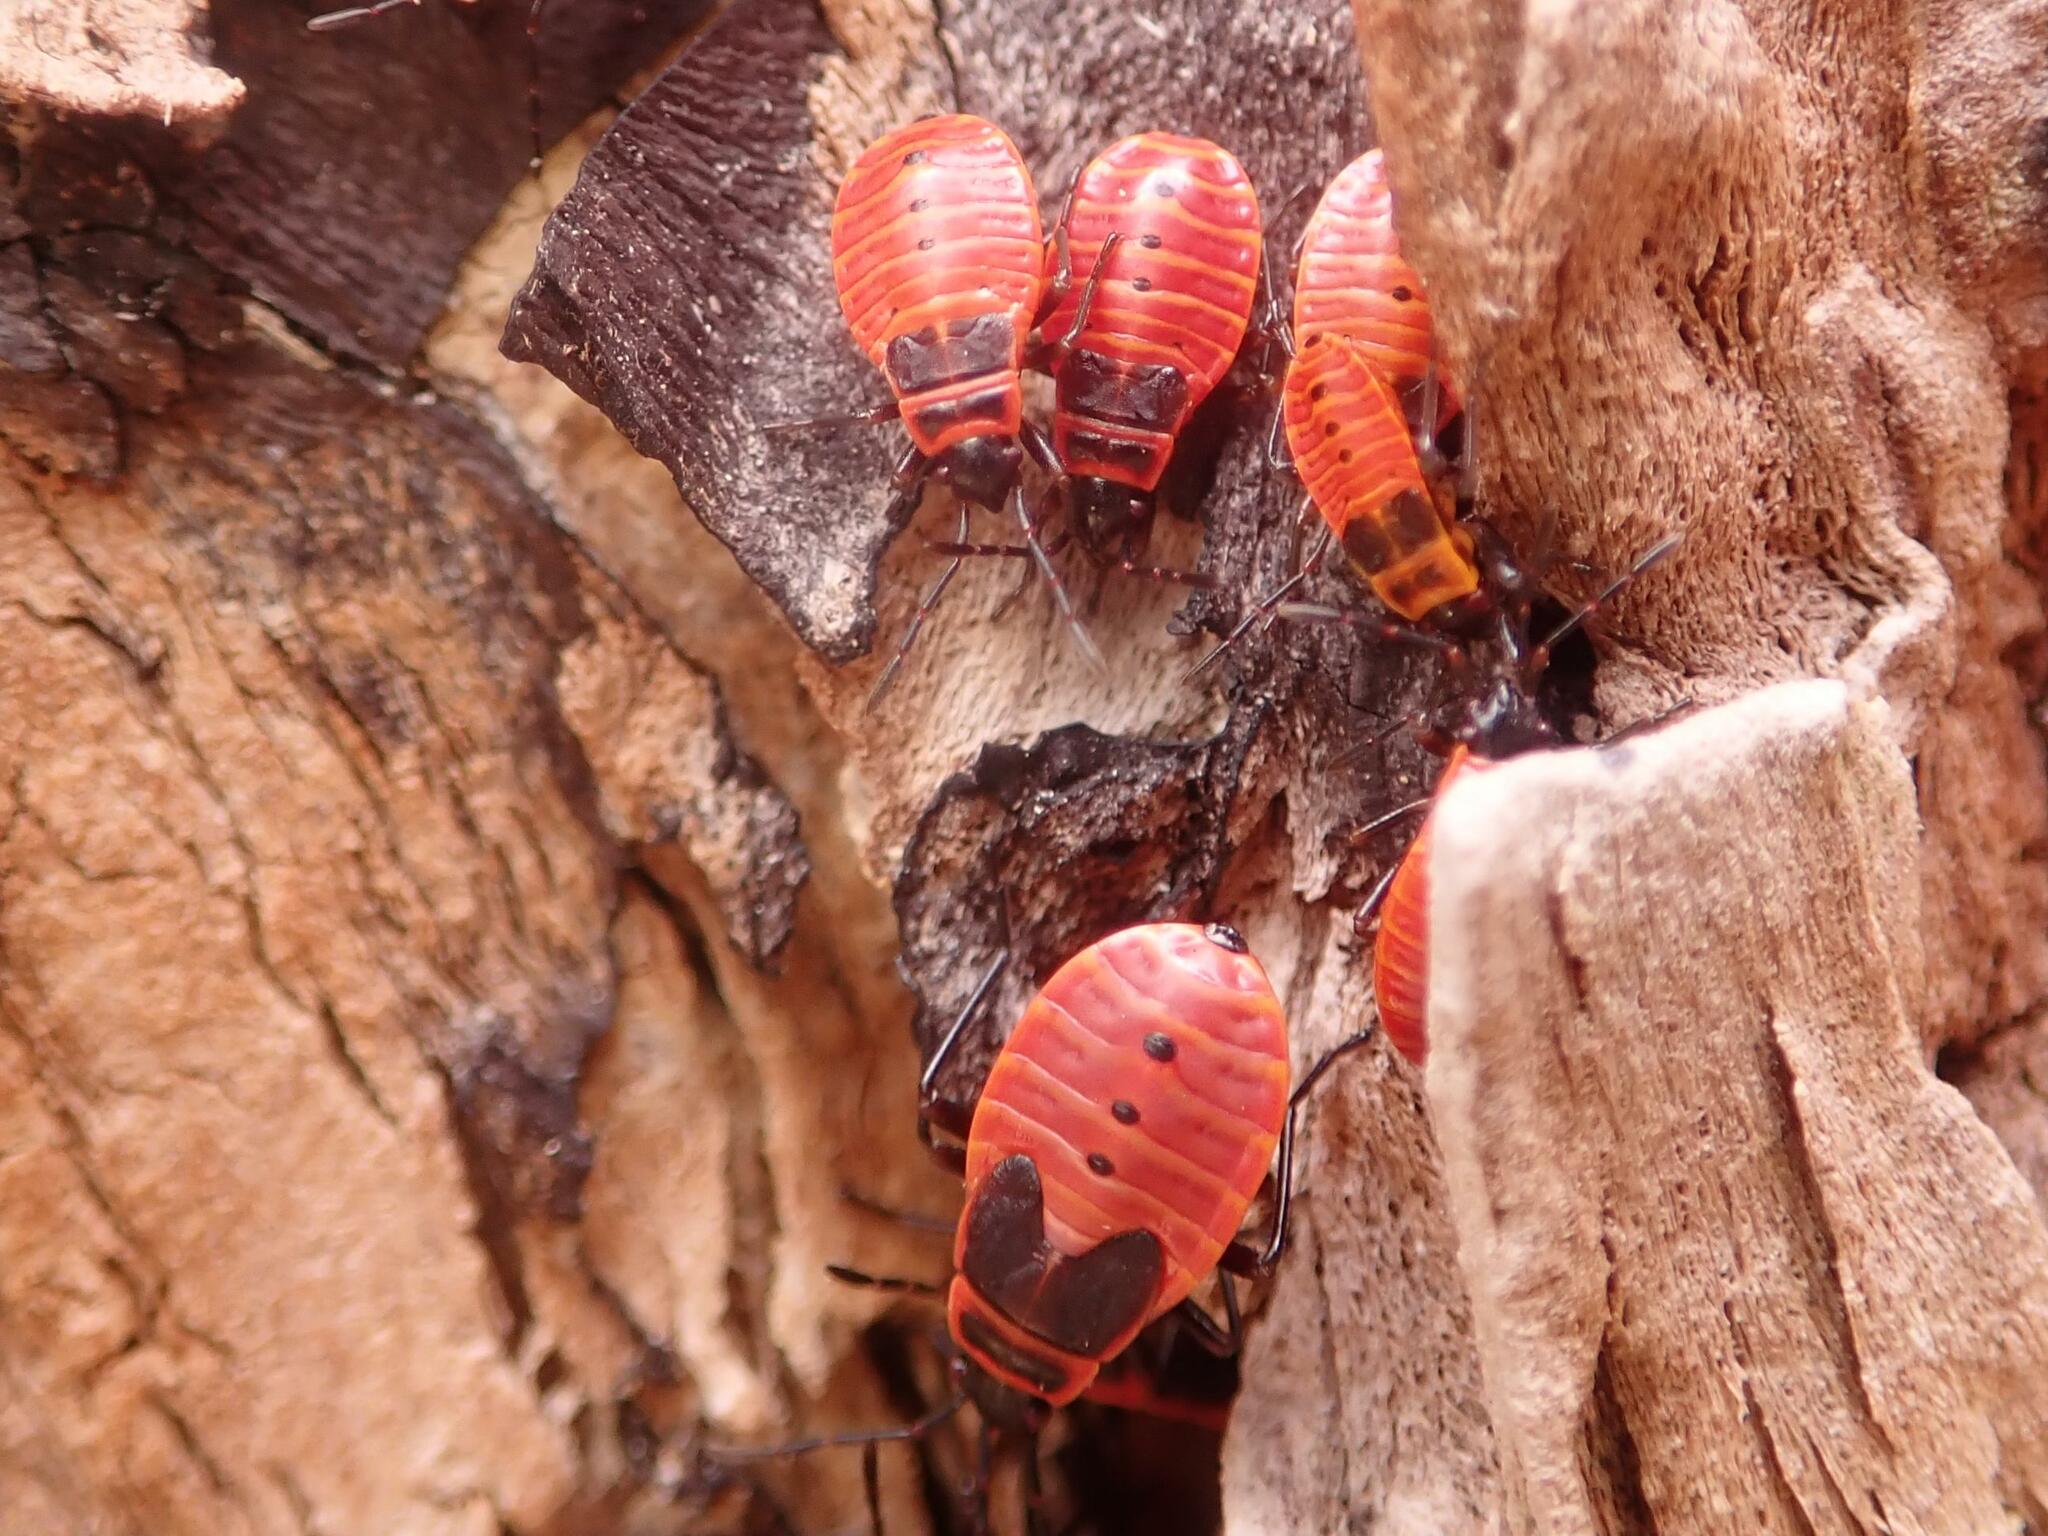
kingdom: Animalia
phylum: Arthropoda
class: Insecta
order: Hemiptera
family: Pyrrhocoridae
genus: Pyrrhocoris
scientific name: Pyrrhocoris apterus
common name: Firebug
